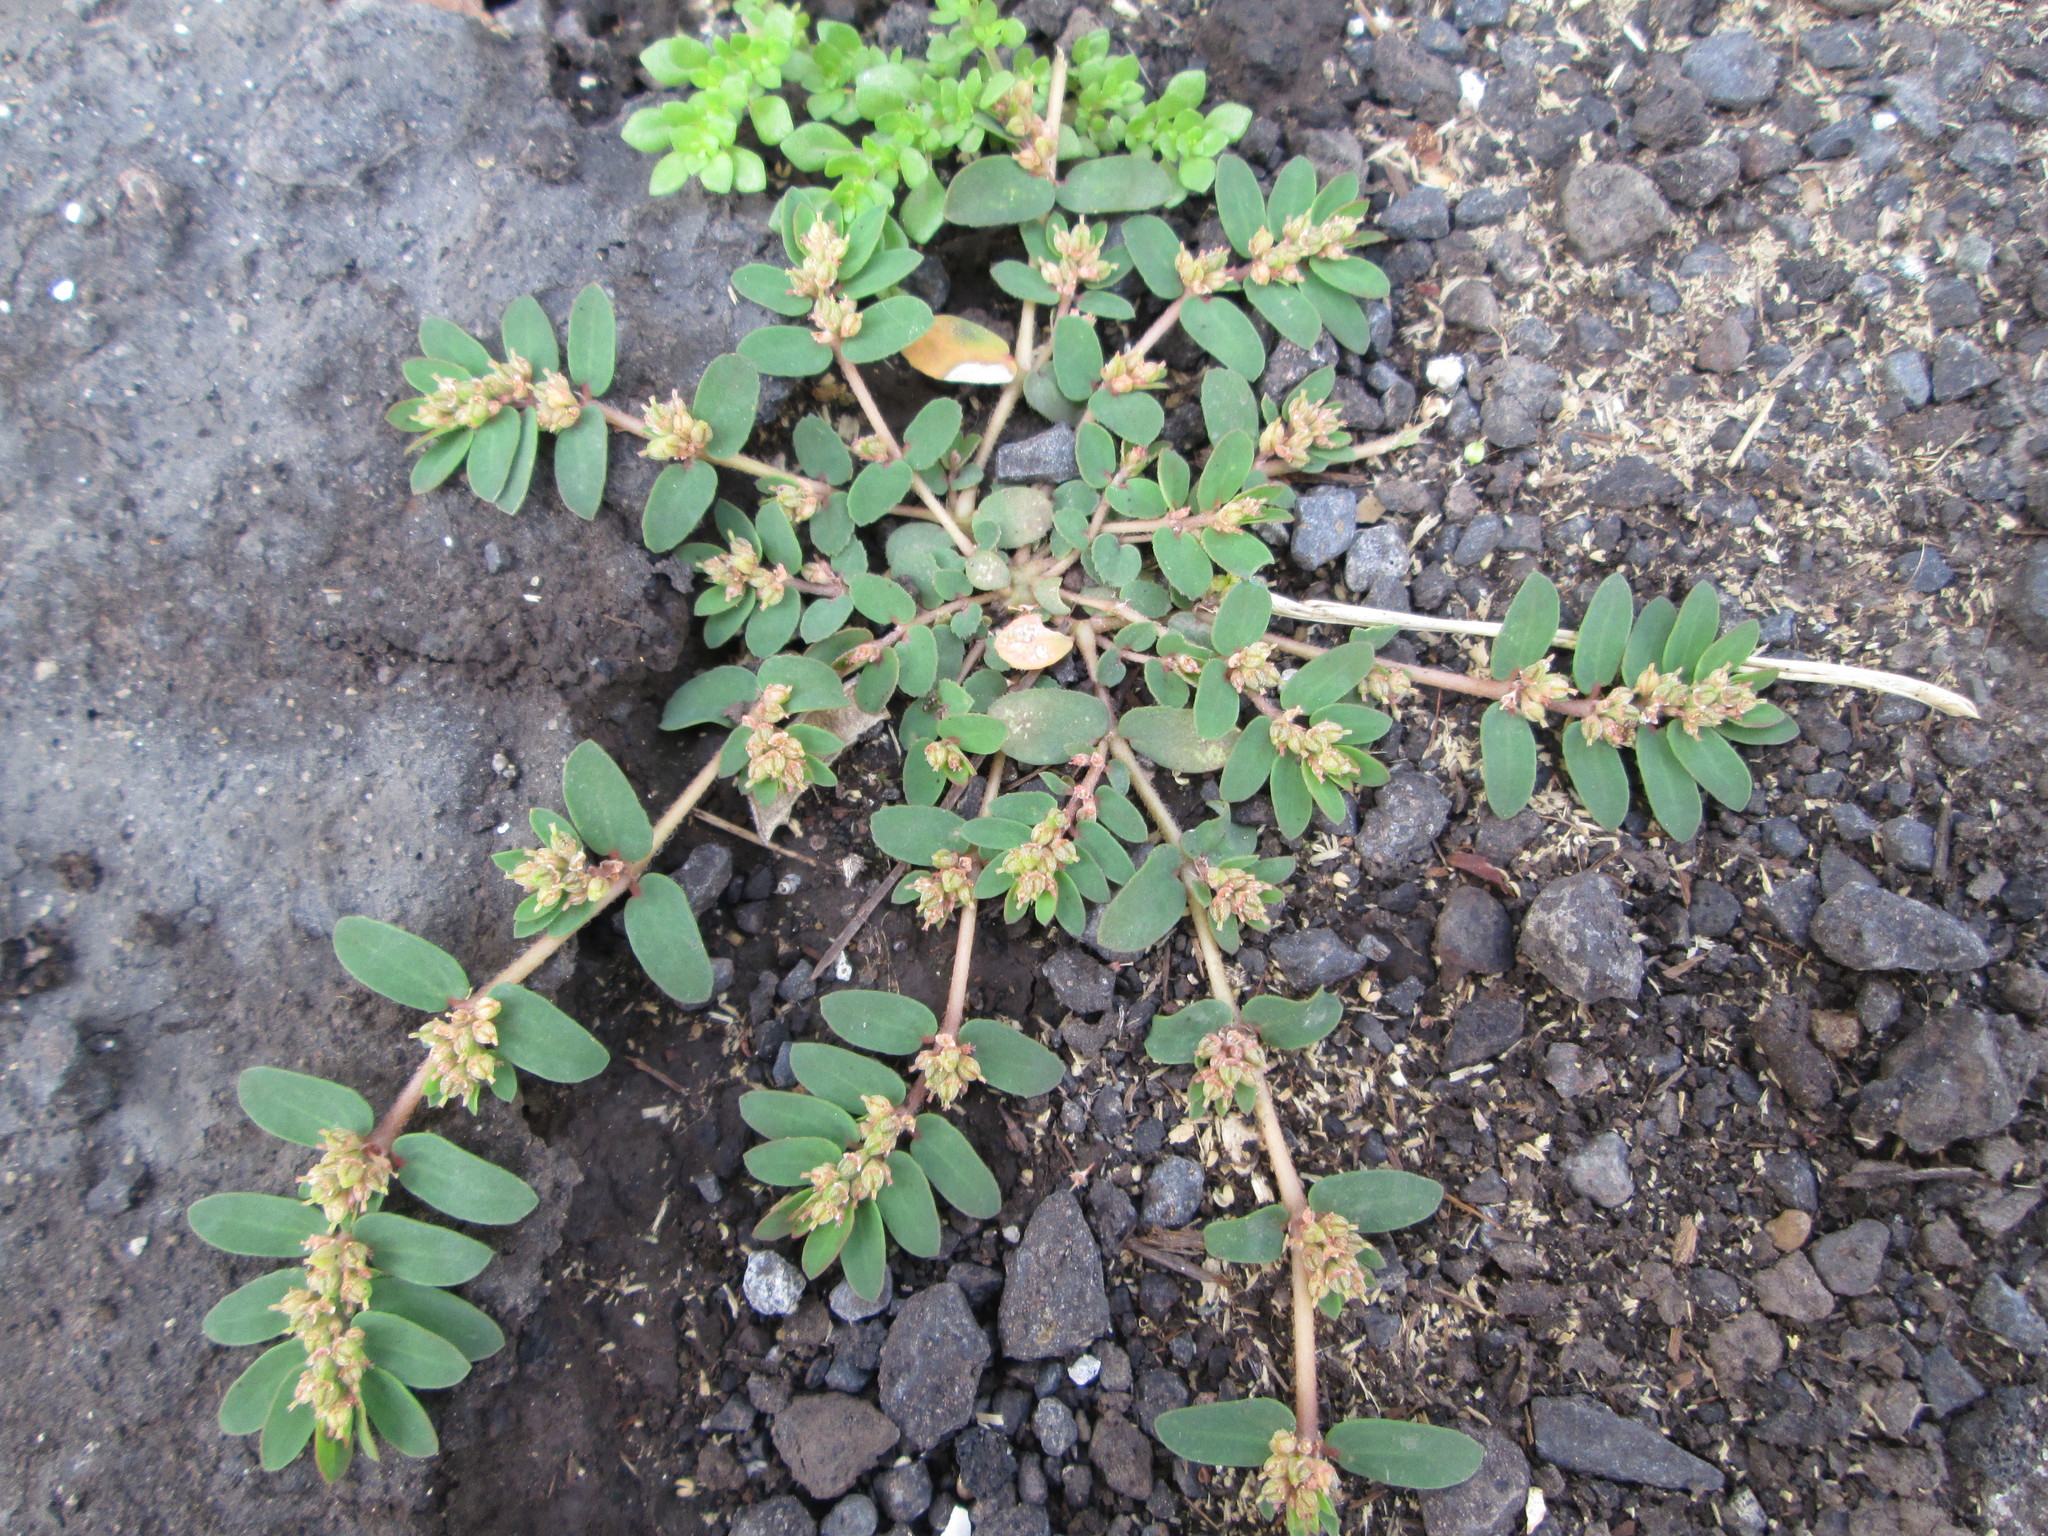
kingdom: Plantae
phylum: Tracheophyta
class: Magnoliopsida
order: Malpighiales
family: Euphorbiaceae
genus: Euphorbia
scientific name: Euphorbia thymifolia
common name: Gulf sandmat
